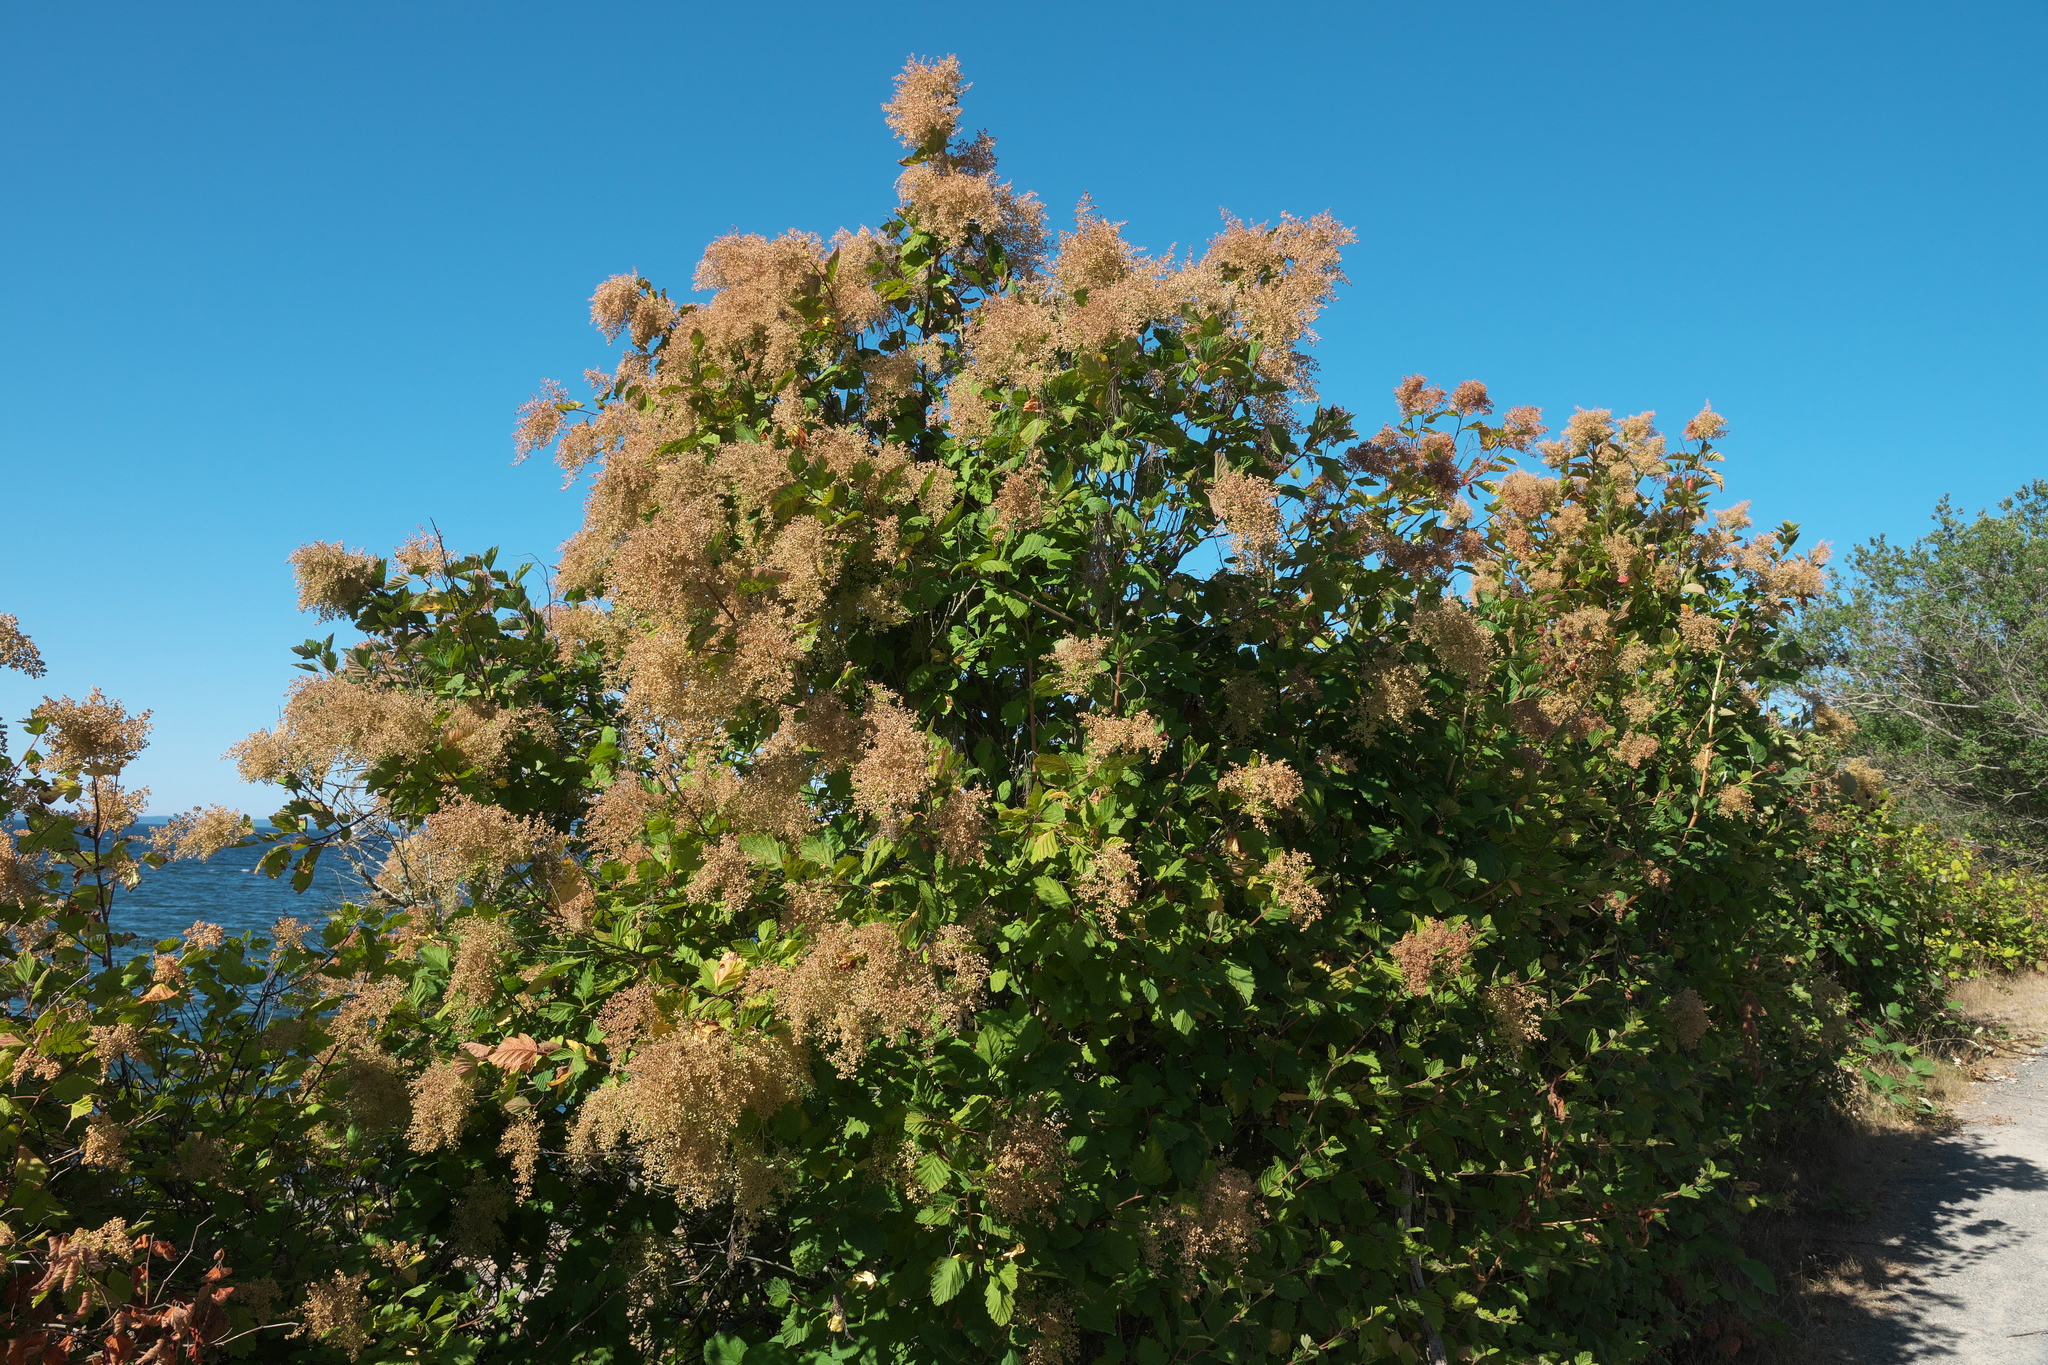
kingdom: Plantae
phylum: Tracheophyta
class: Magnoliopsida
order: Rosales
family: Rosaceae
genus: Holodiscus
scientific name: Holodiscus discolor
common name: Oceanspray
